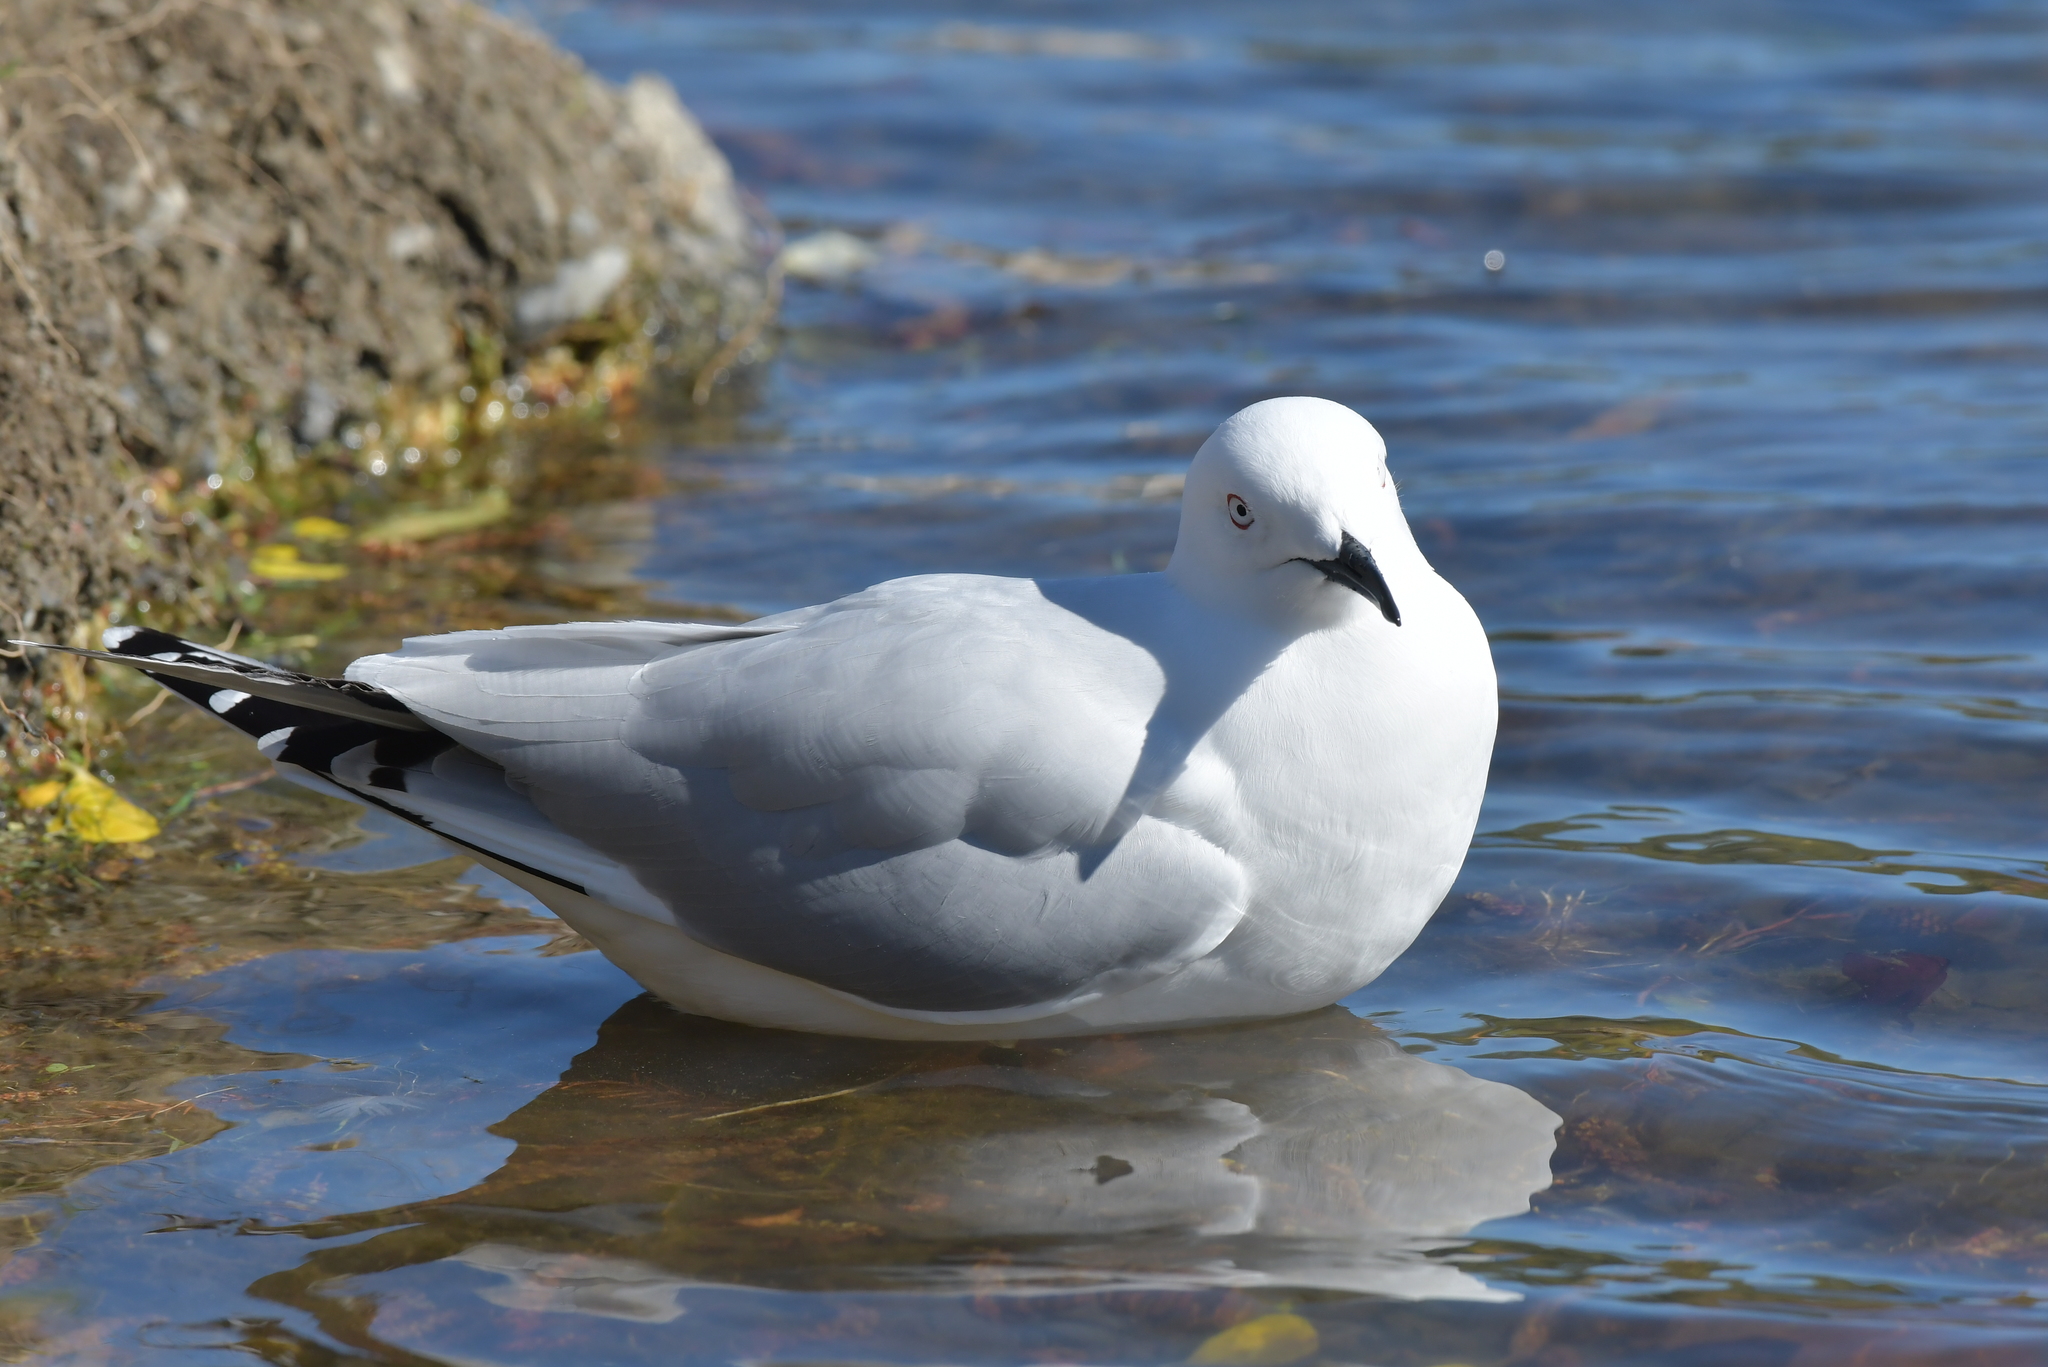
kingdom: Animalia
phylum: Chordata
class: Aves
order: Charadriiformes
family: Laridae
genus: Chroicocephalus
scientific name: Chroicocephalus bulleri
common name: Black-billed gull
